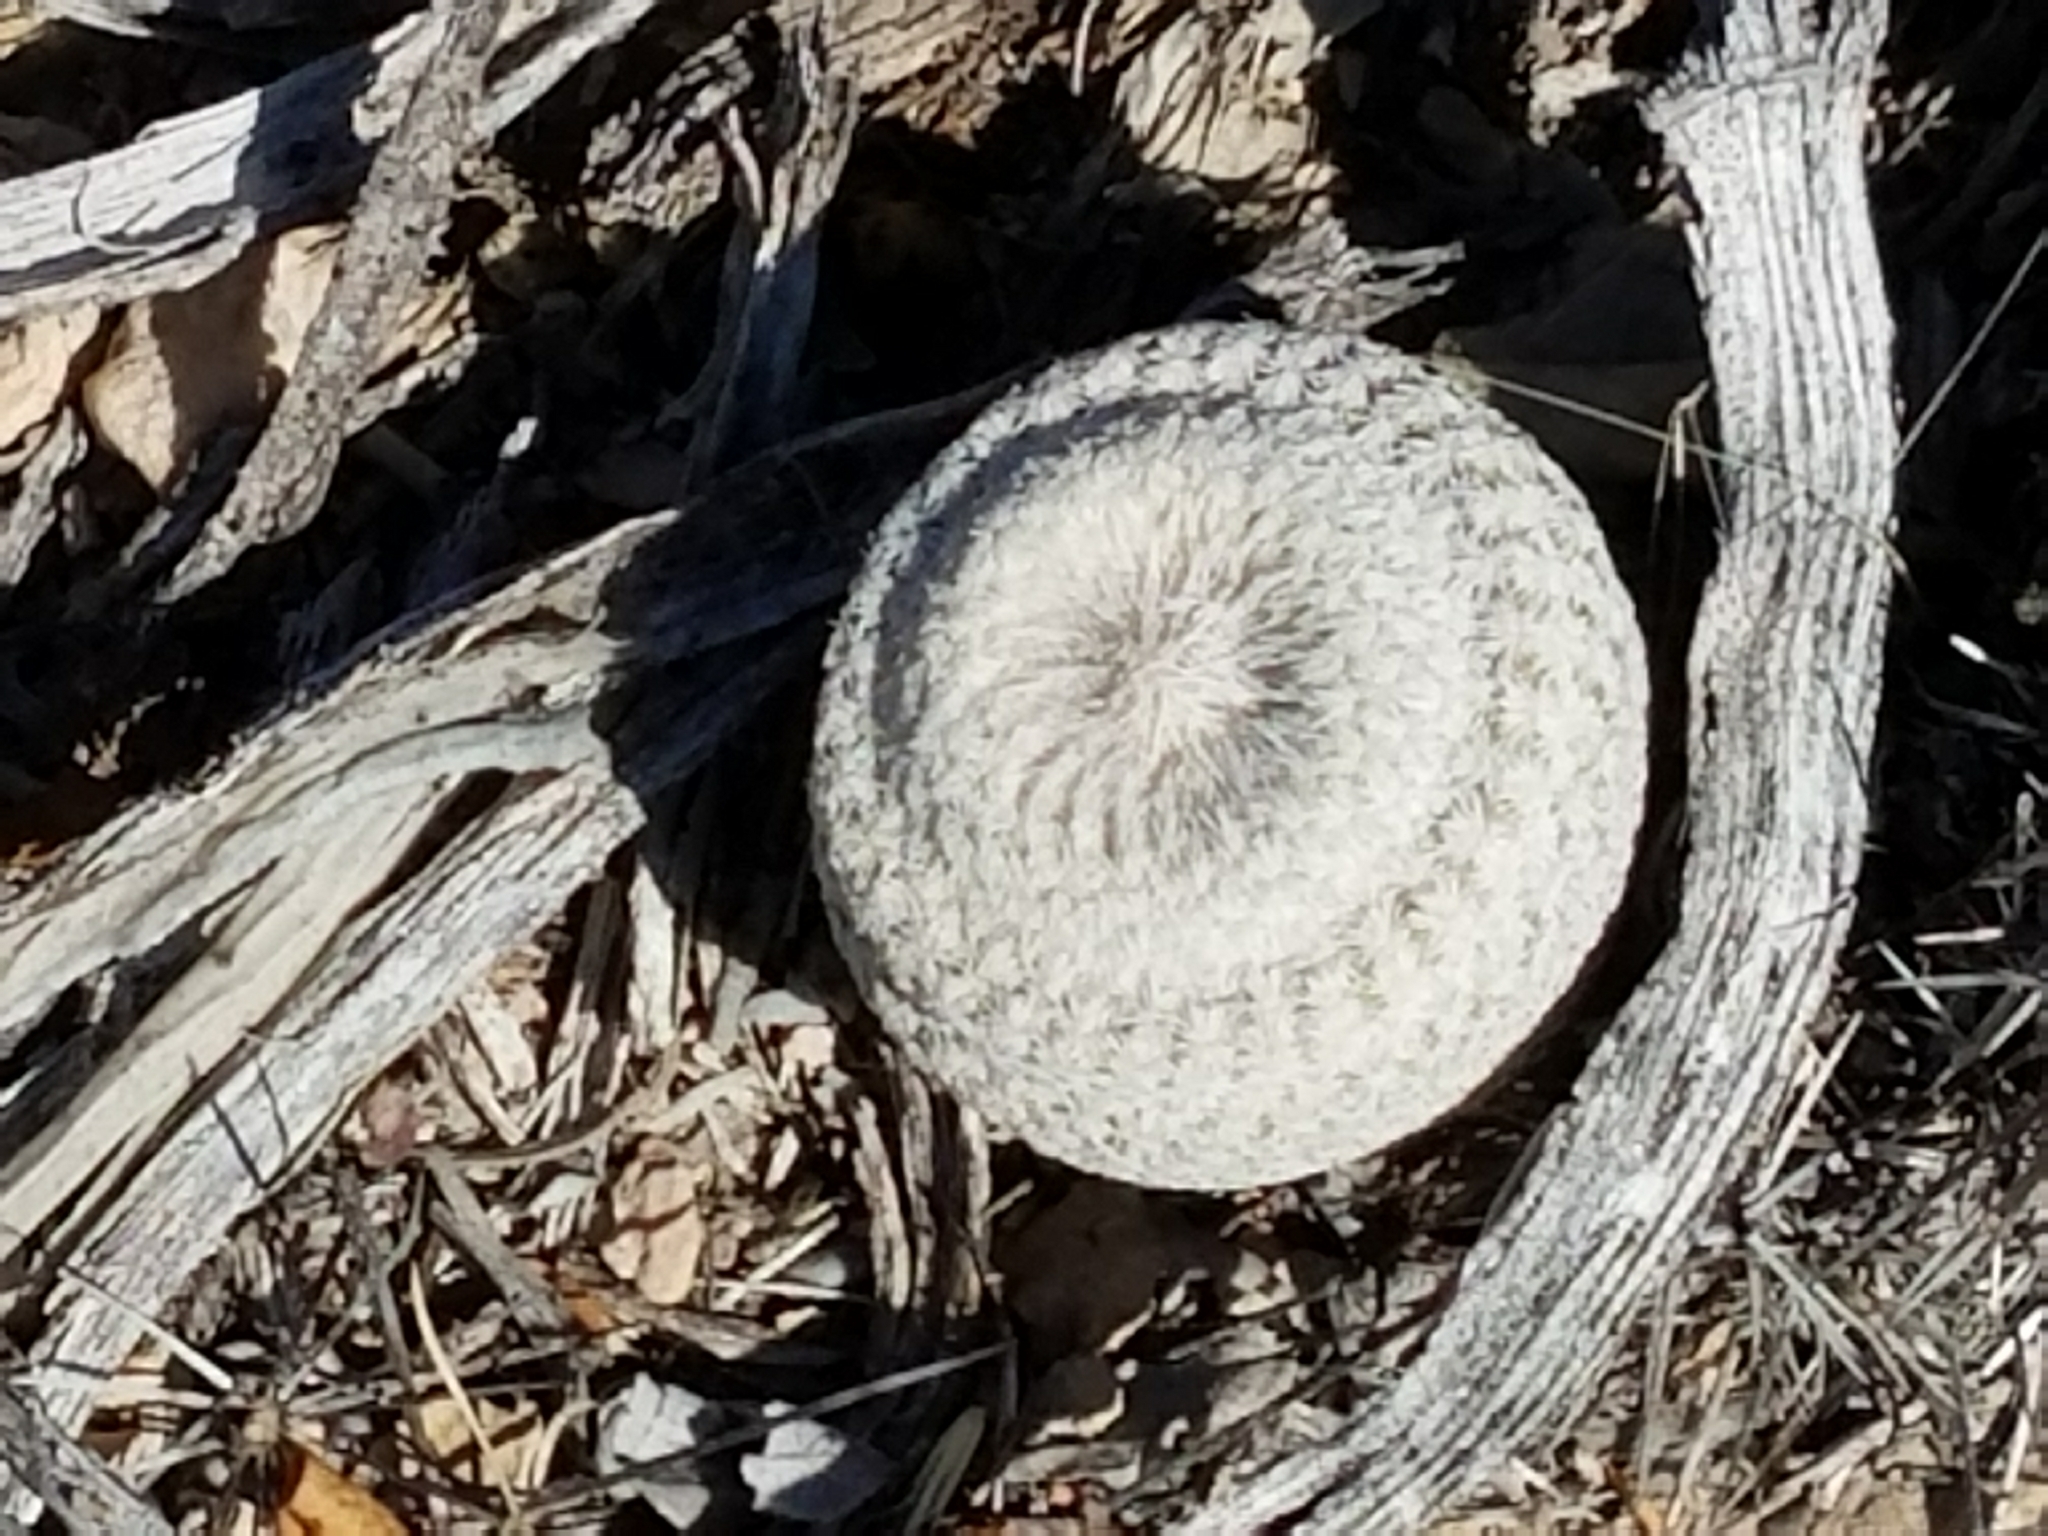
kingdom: Plantae
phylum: Tracheophyta
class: Magnoliopsida
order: Caryophyllales
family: Cactaceae
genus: Epithelantha
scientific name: Epithelantha bokei
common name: Boke's button cactus
